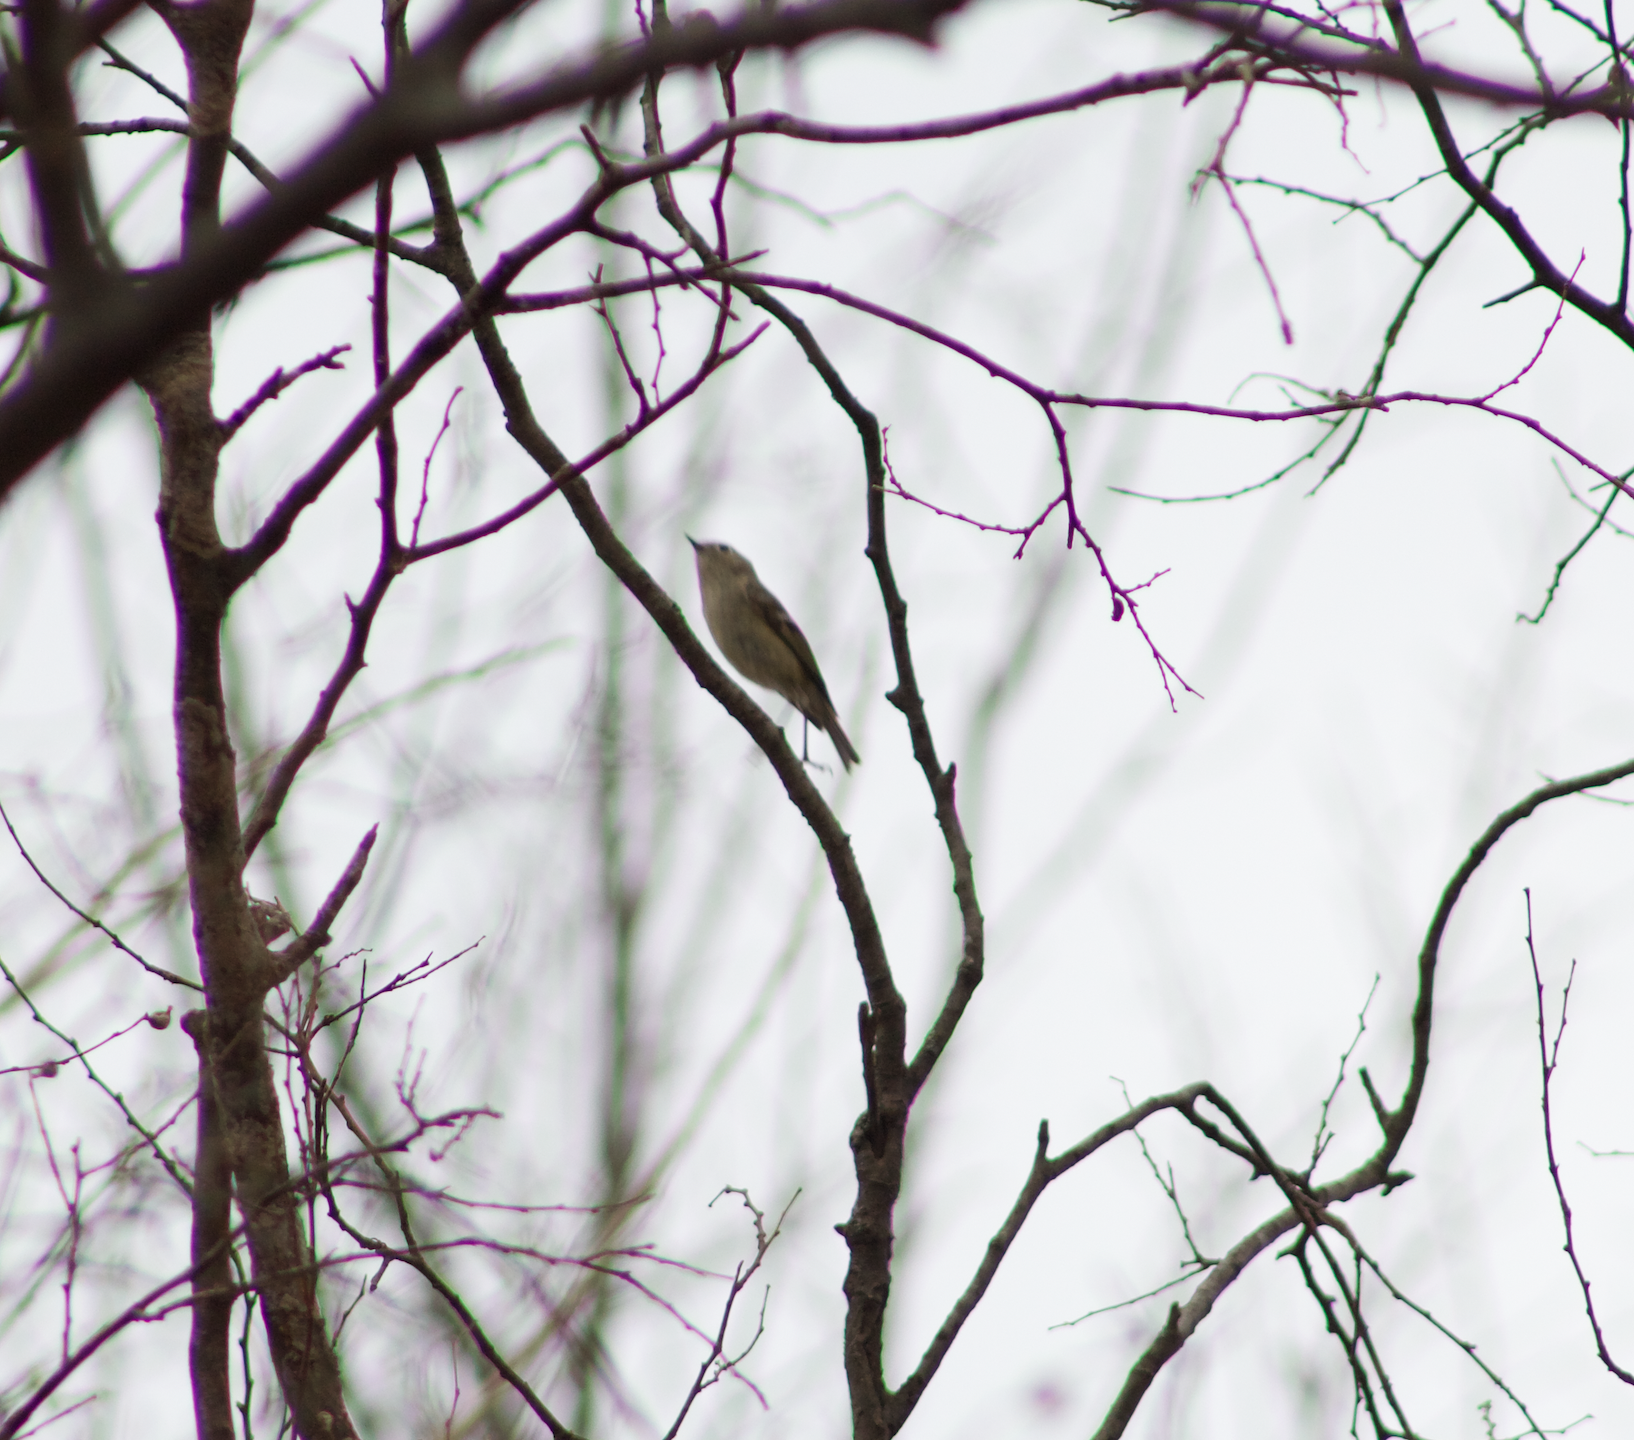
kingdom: Animalia
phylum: Chordata
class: Aves
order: Passeriformes
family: Regulidae
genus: Regulus
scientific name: Regulus calendula
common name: Ruby-crowned kinglet
